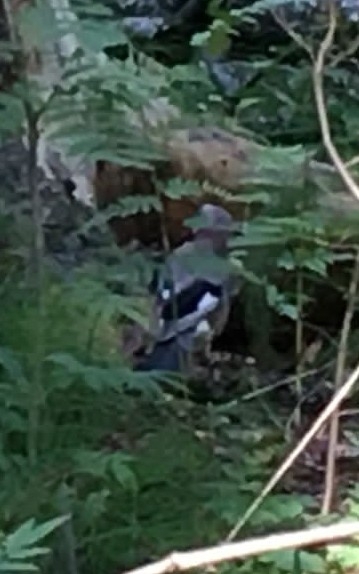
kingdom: Animalia
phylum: Chordata
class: Aves
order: Passeriformes
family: Corvidae
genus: Garrulus
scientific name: Garrulus glandarius
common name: Eurasian jay
